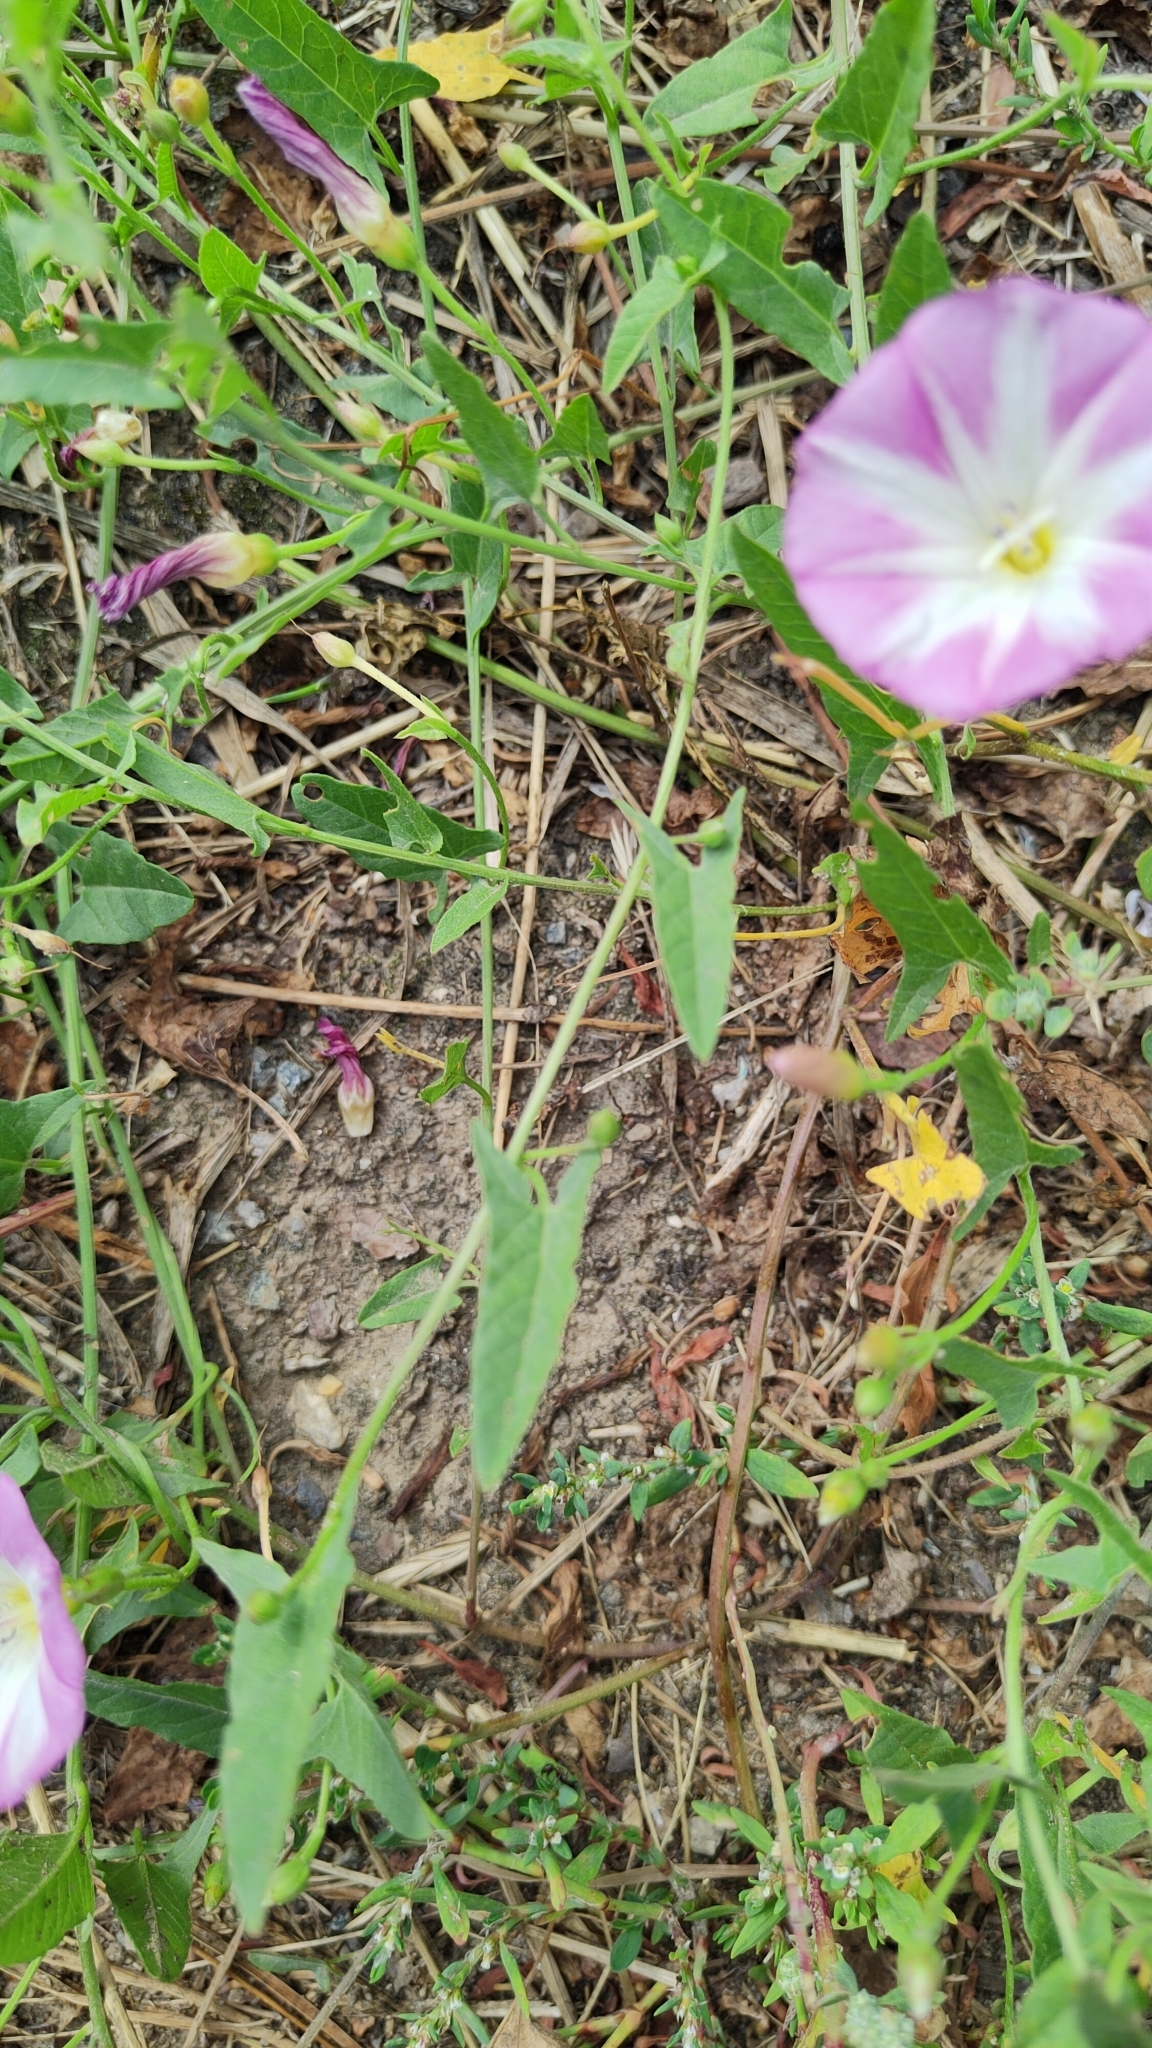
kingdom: Plantae
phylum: Tracheophyta
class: Magnoliopsida
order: Solanales
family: Convolvulaceae
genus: Convolvulus
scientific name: Convolvulus arvensis
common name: Field bindweed
